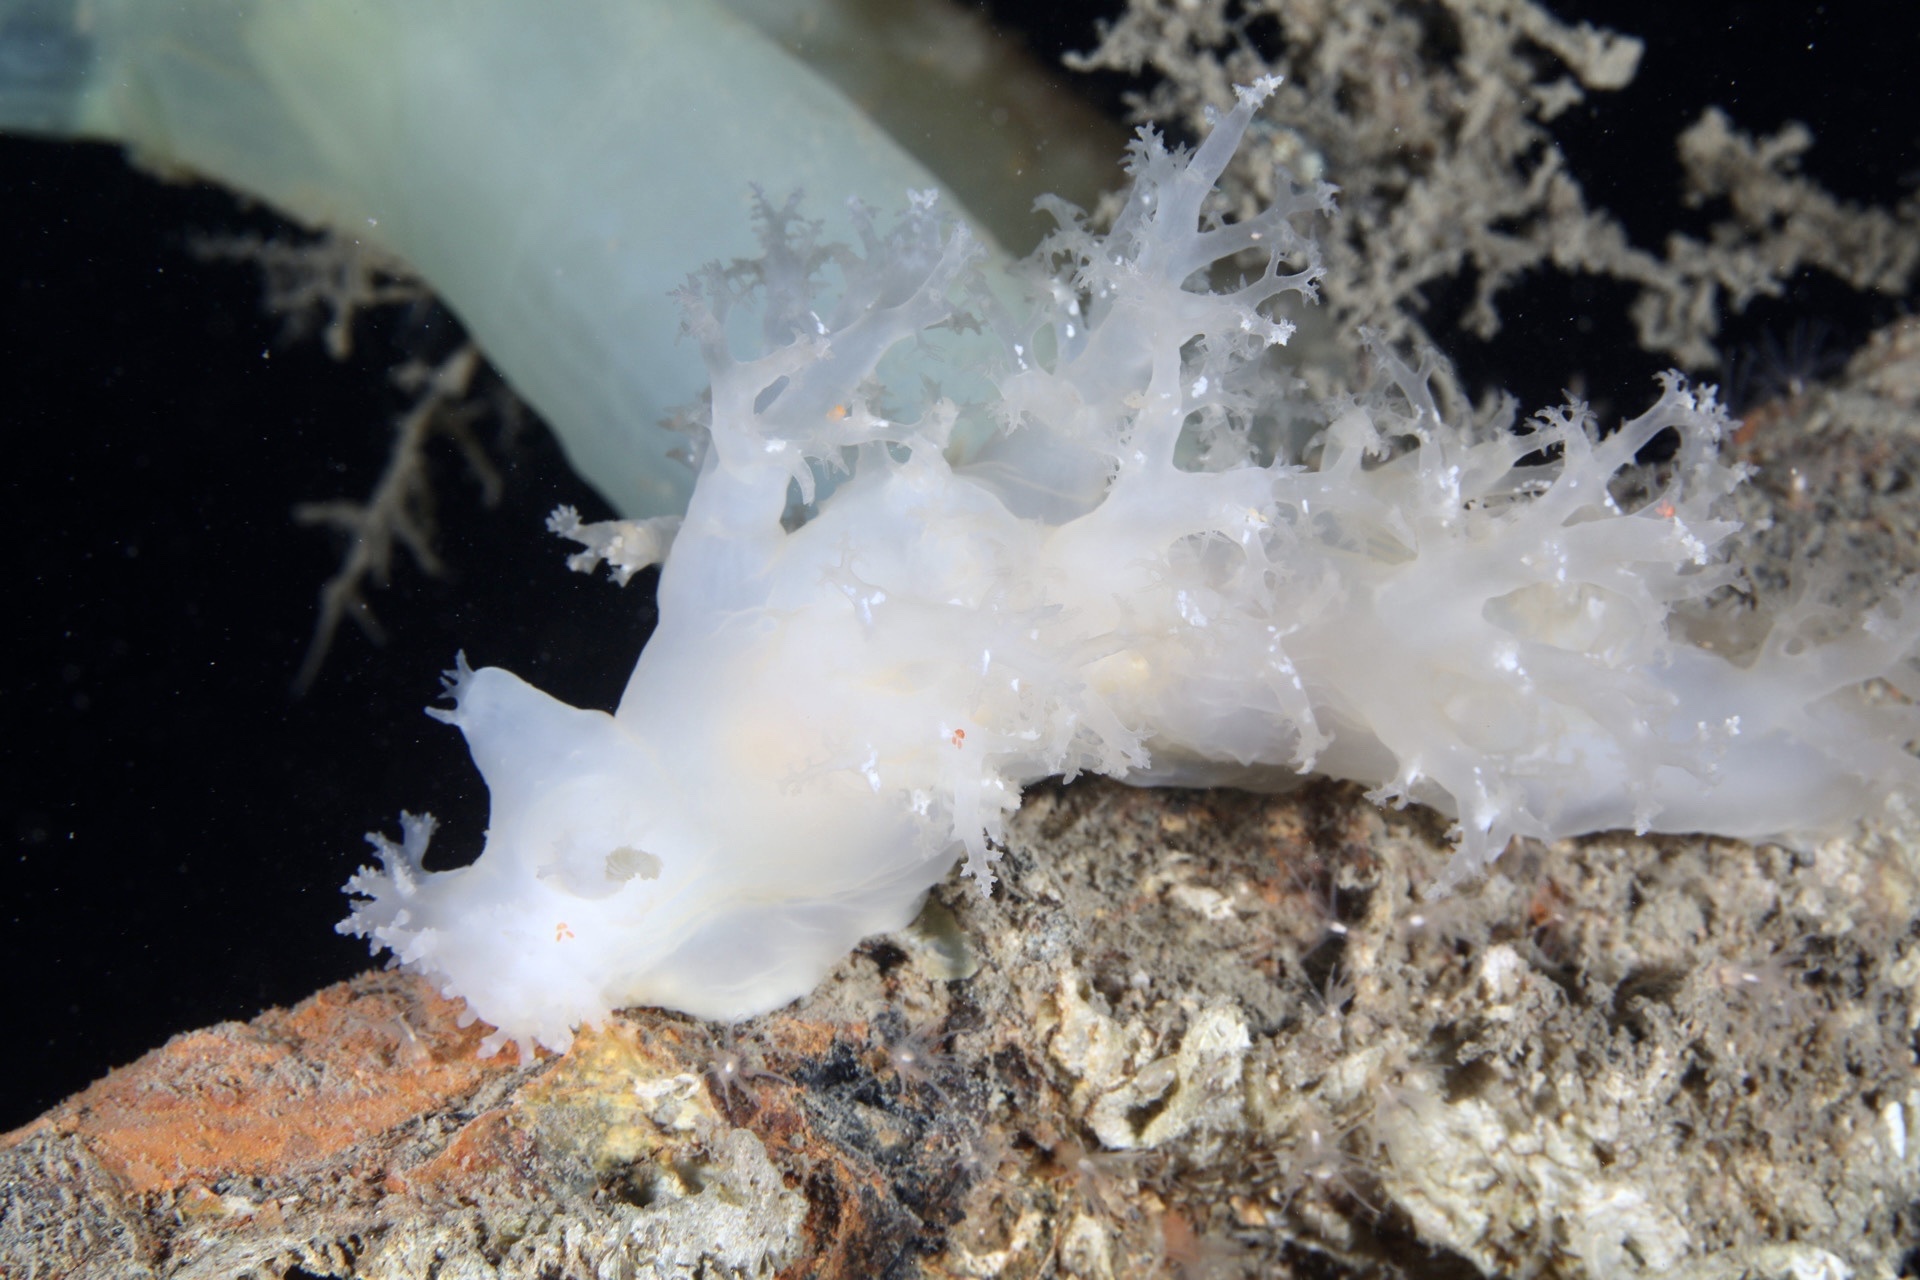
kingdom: Animalia
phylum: Mollusca
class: Gastropoda
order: Nudibranchia
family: Dendronotidae
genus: Dendronotus
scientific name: Dendronotus lacteus
